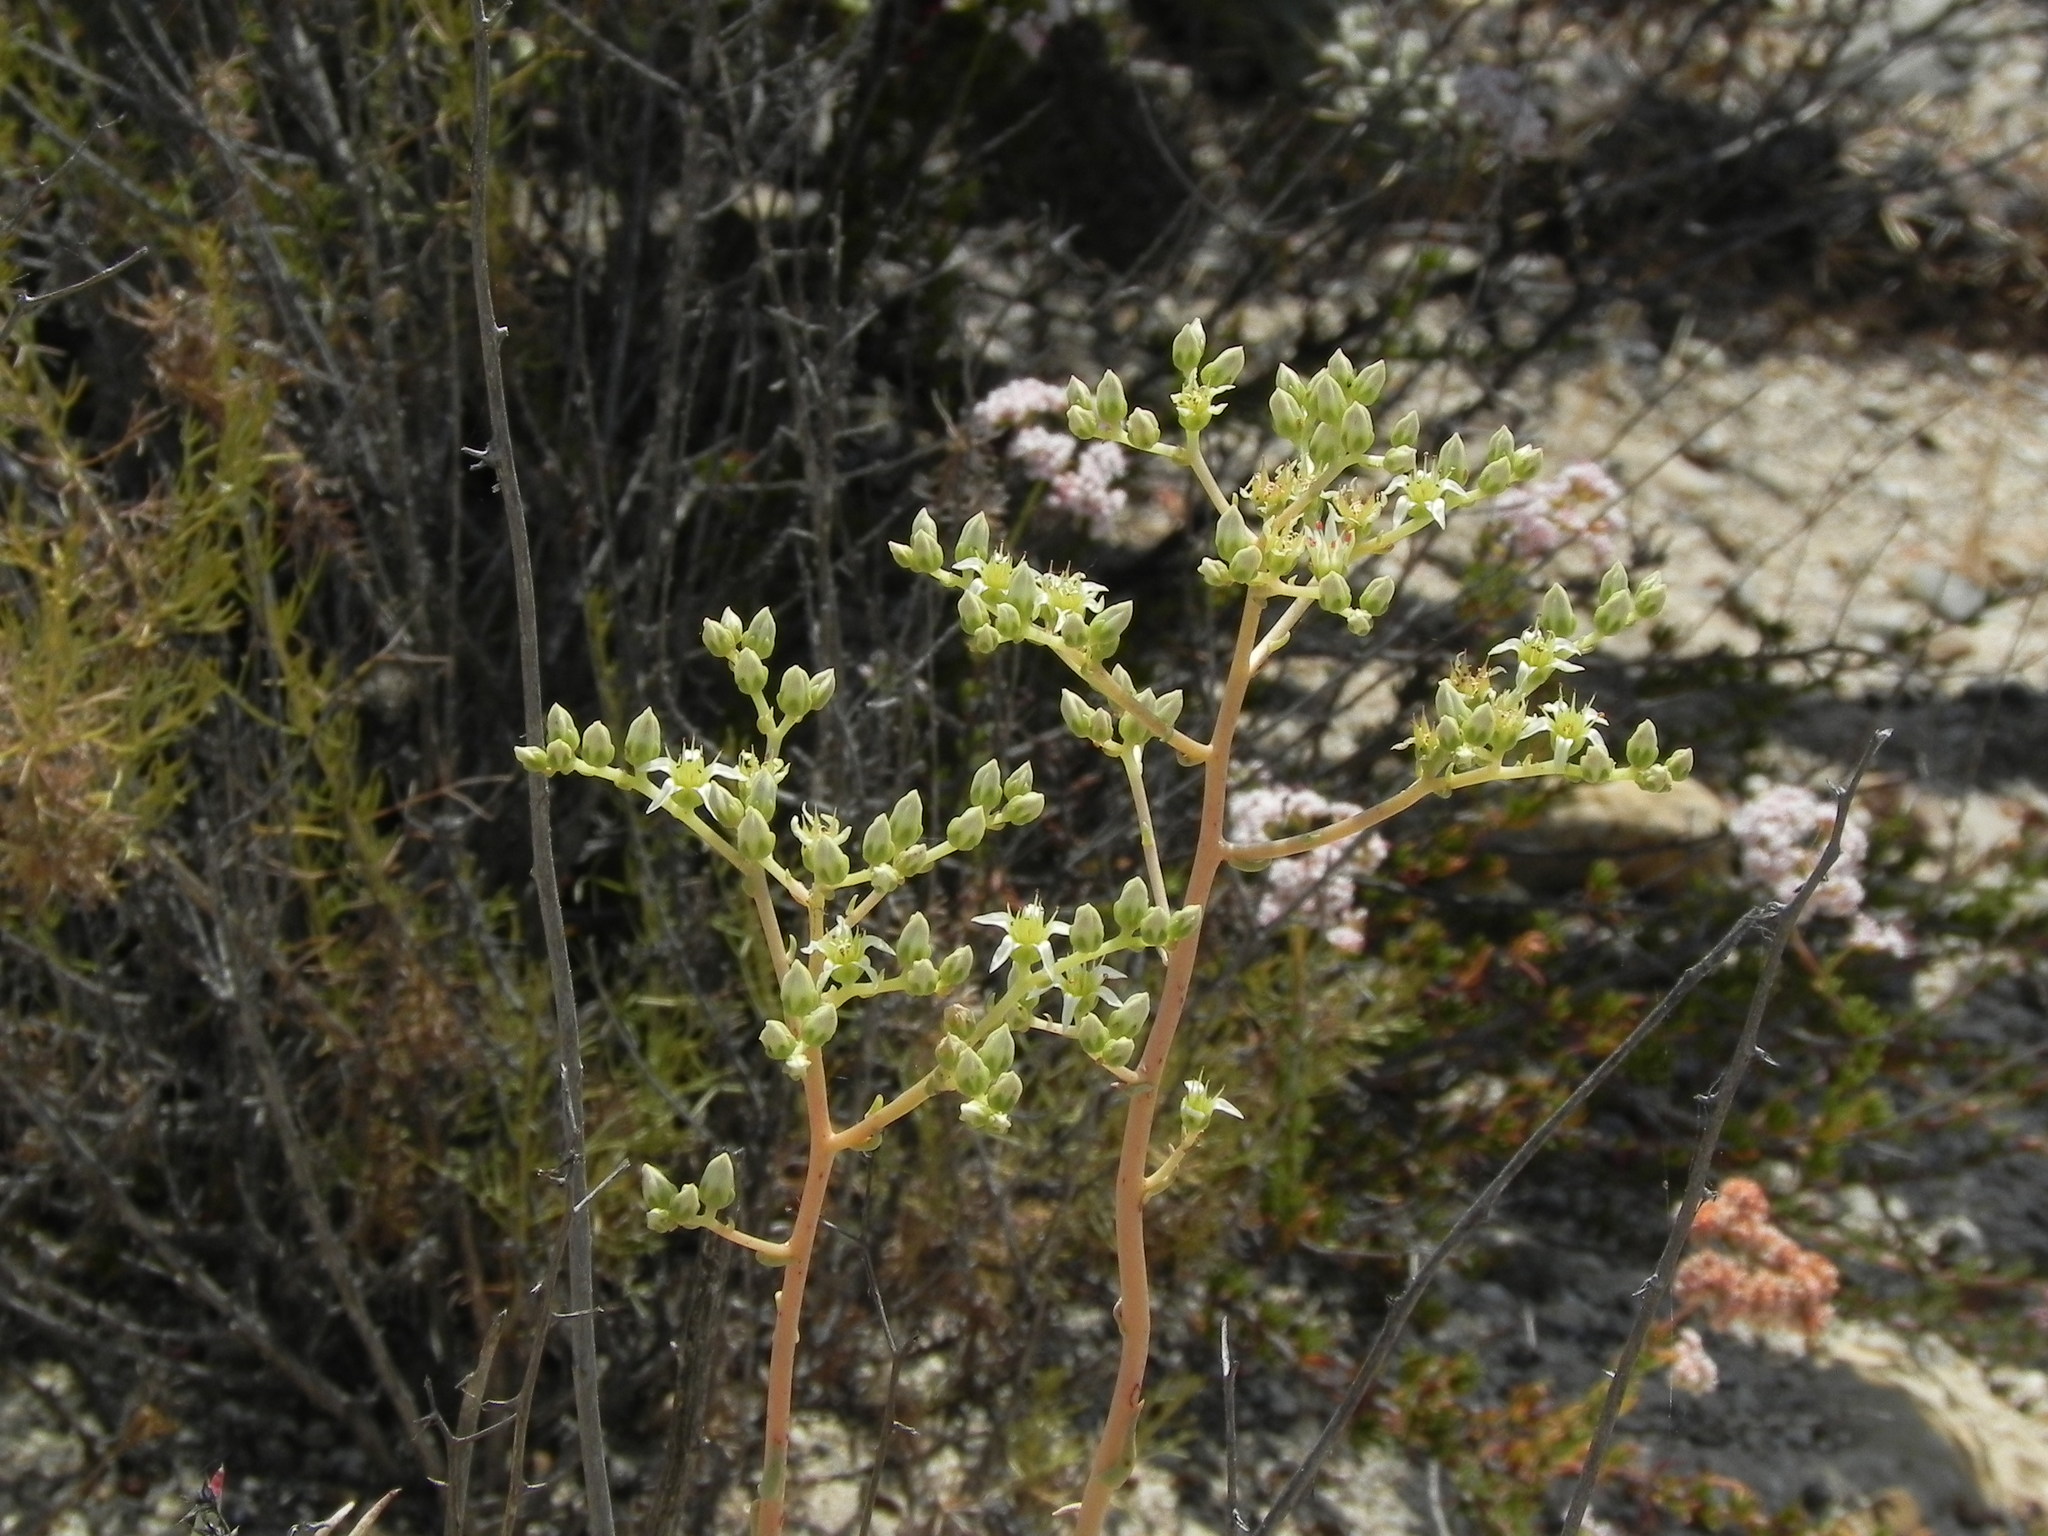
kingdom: Plantae
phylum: Tracheophyta
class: Magnoliopsida
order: Saxifragales
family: Crassulaceae
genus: Dudleya
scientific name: Dudleya edulis
